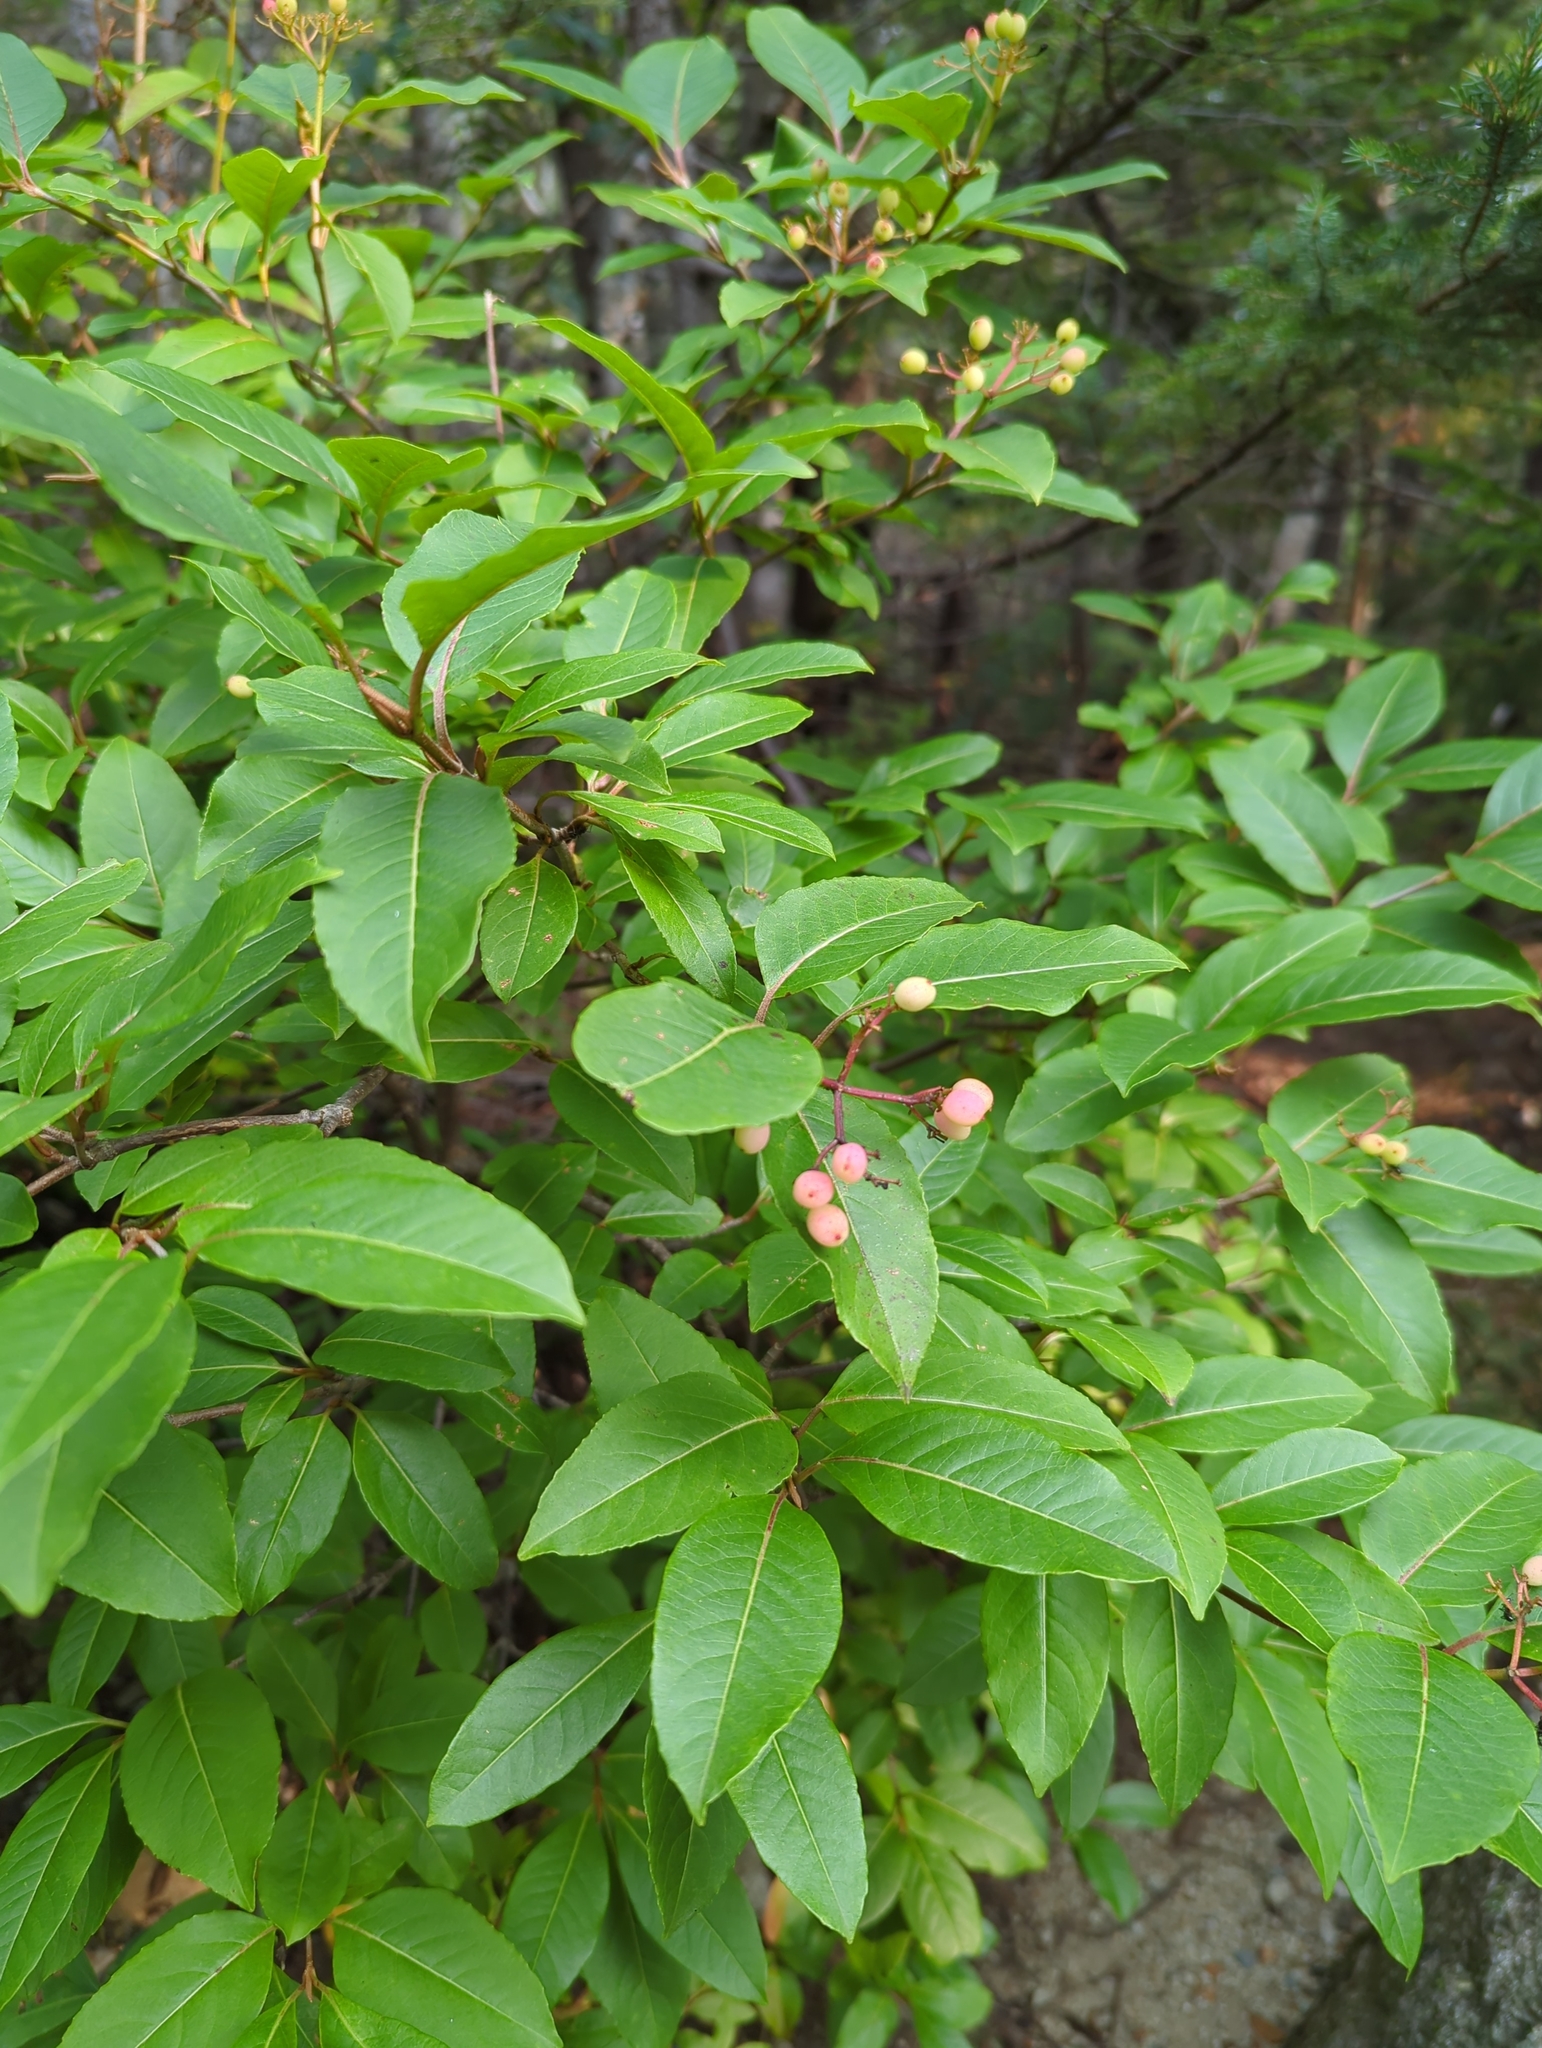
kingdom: Plantae
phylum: Tracheophyta
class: Magnoliopsida
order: Dipsacales
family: Viburnaceae
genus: Viburnum
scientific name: Viburnum cassinoides
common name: Swamp haw
